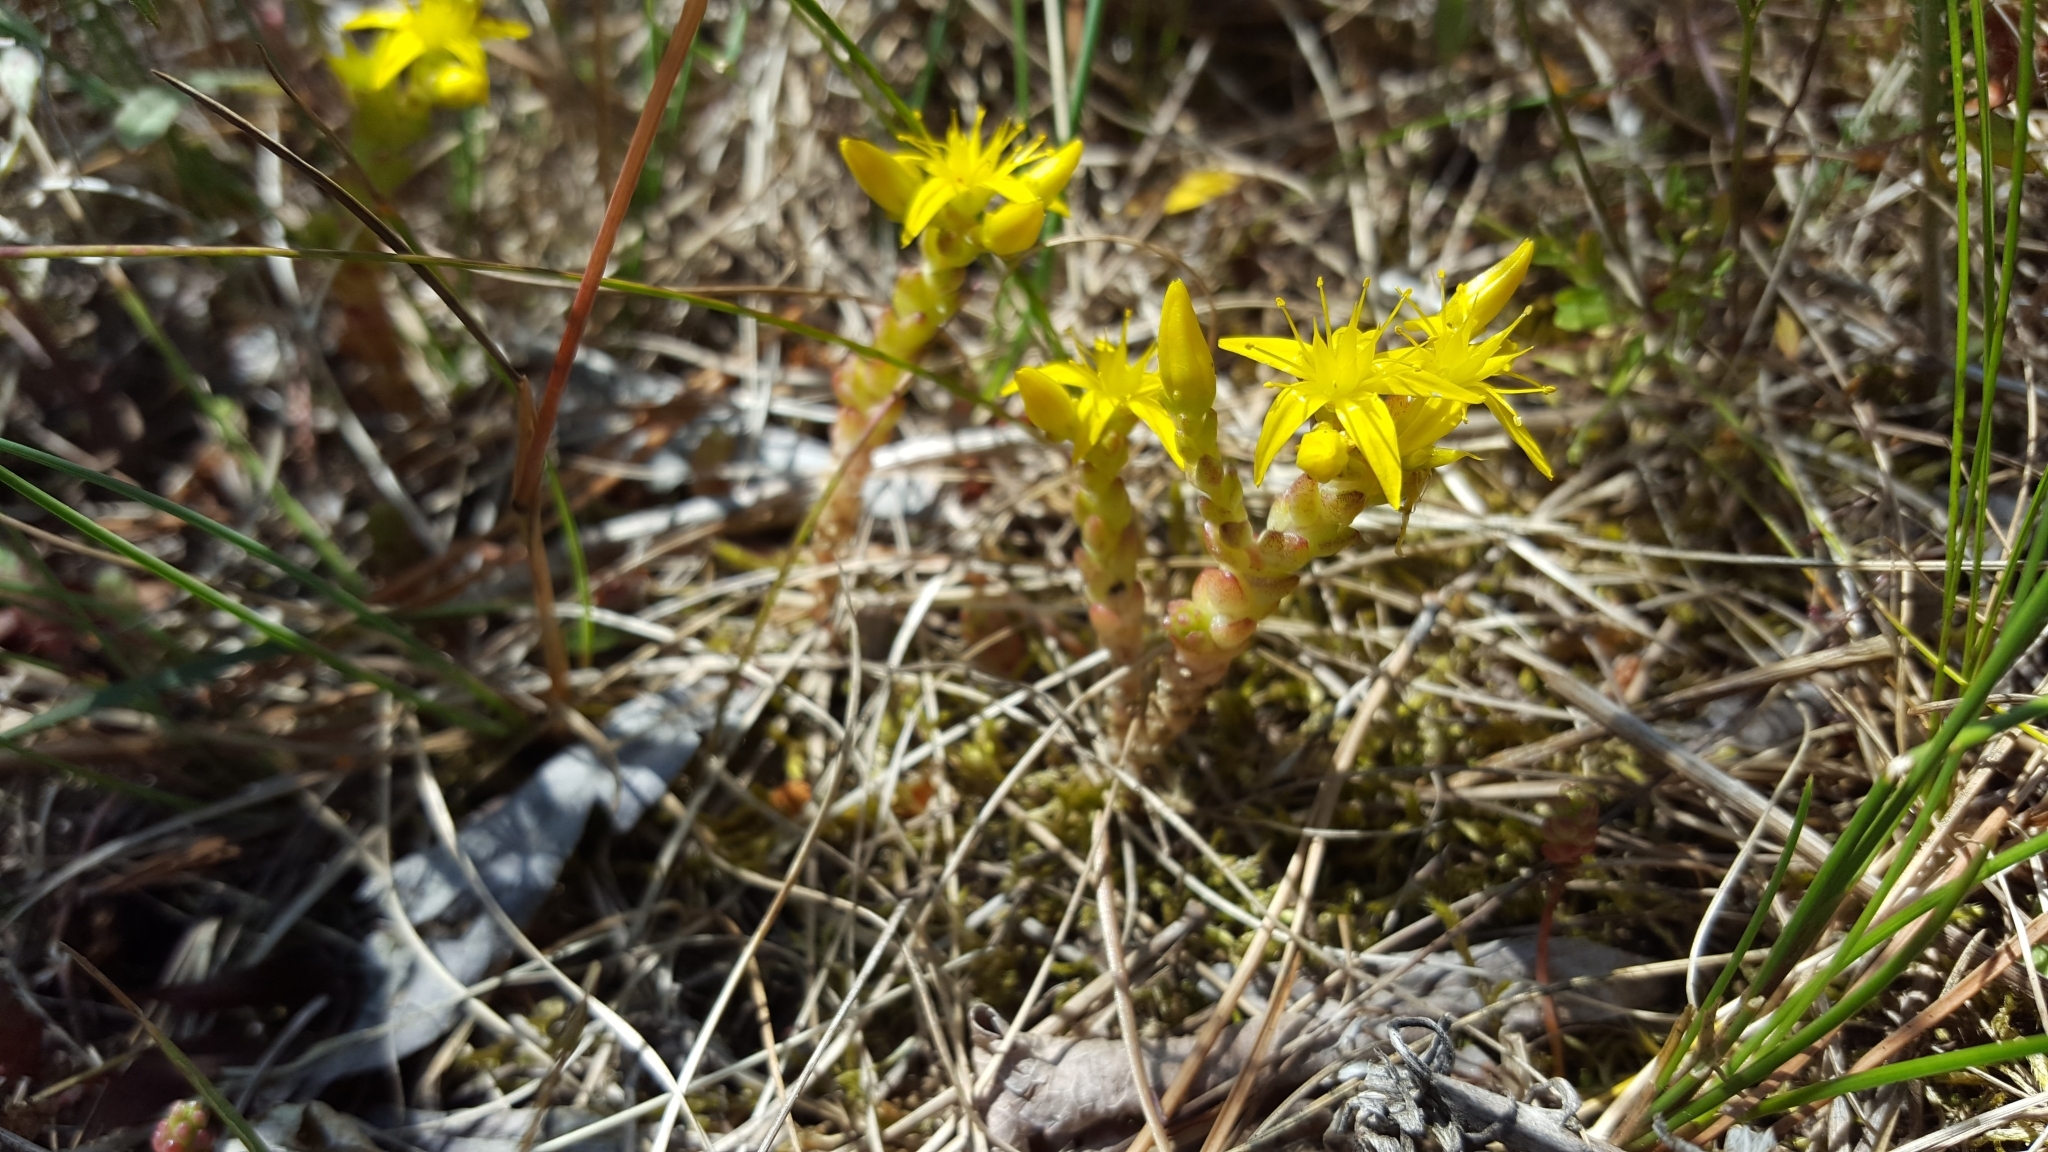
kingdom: Plantae
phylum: Tracheophyta
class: Magnoliopsida
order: Saxifragales
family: Crassulaceae
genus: Sedum
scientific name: Sedum acre
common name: Biting stonecrop
